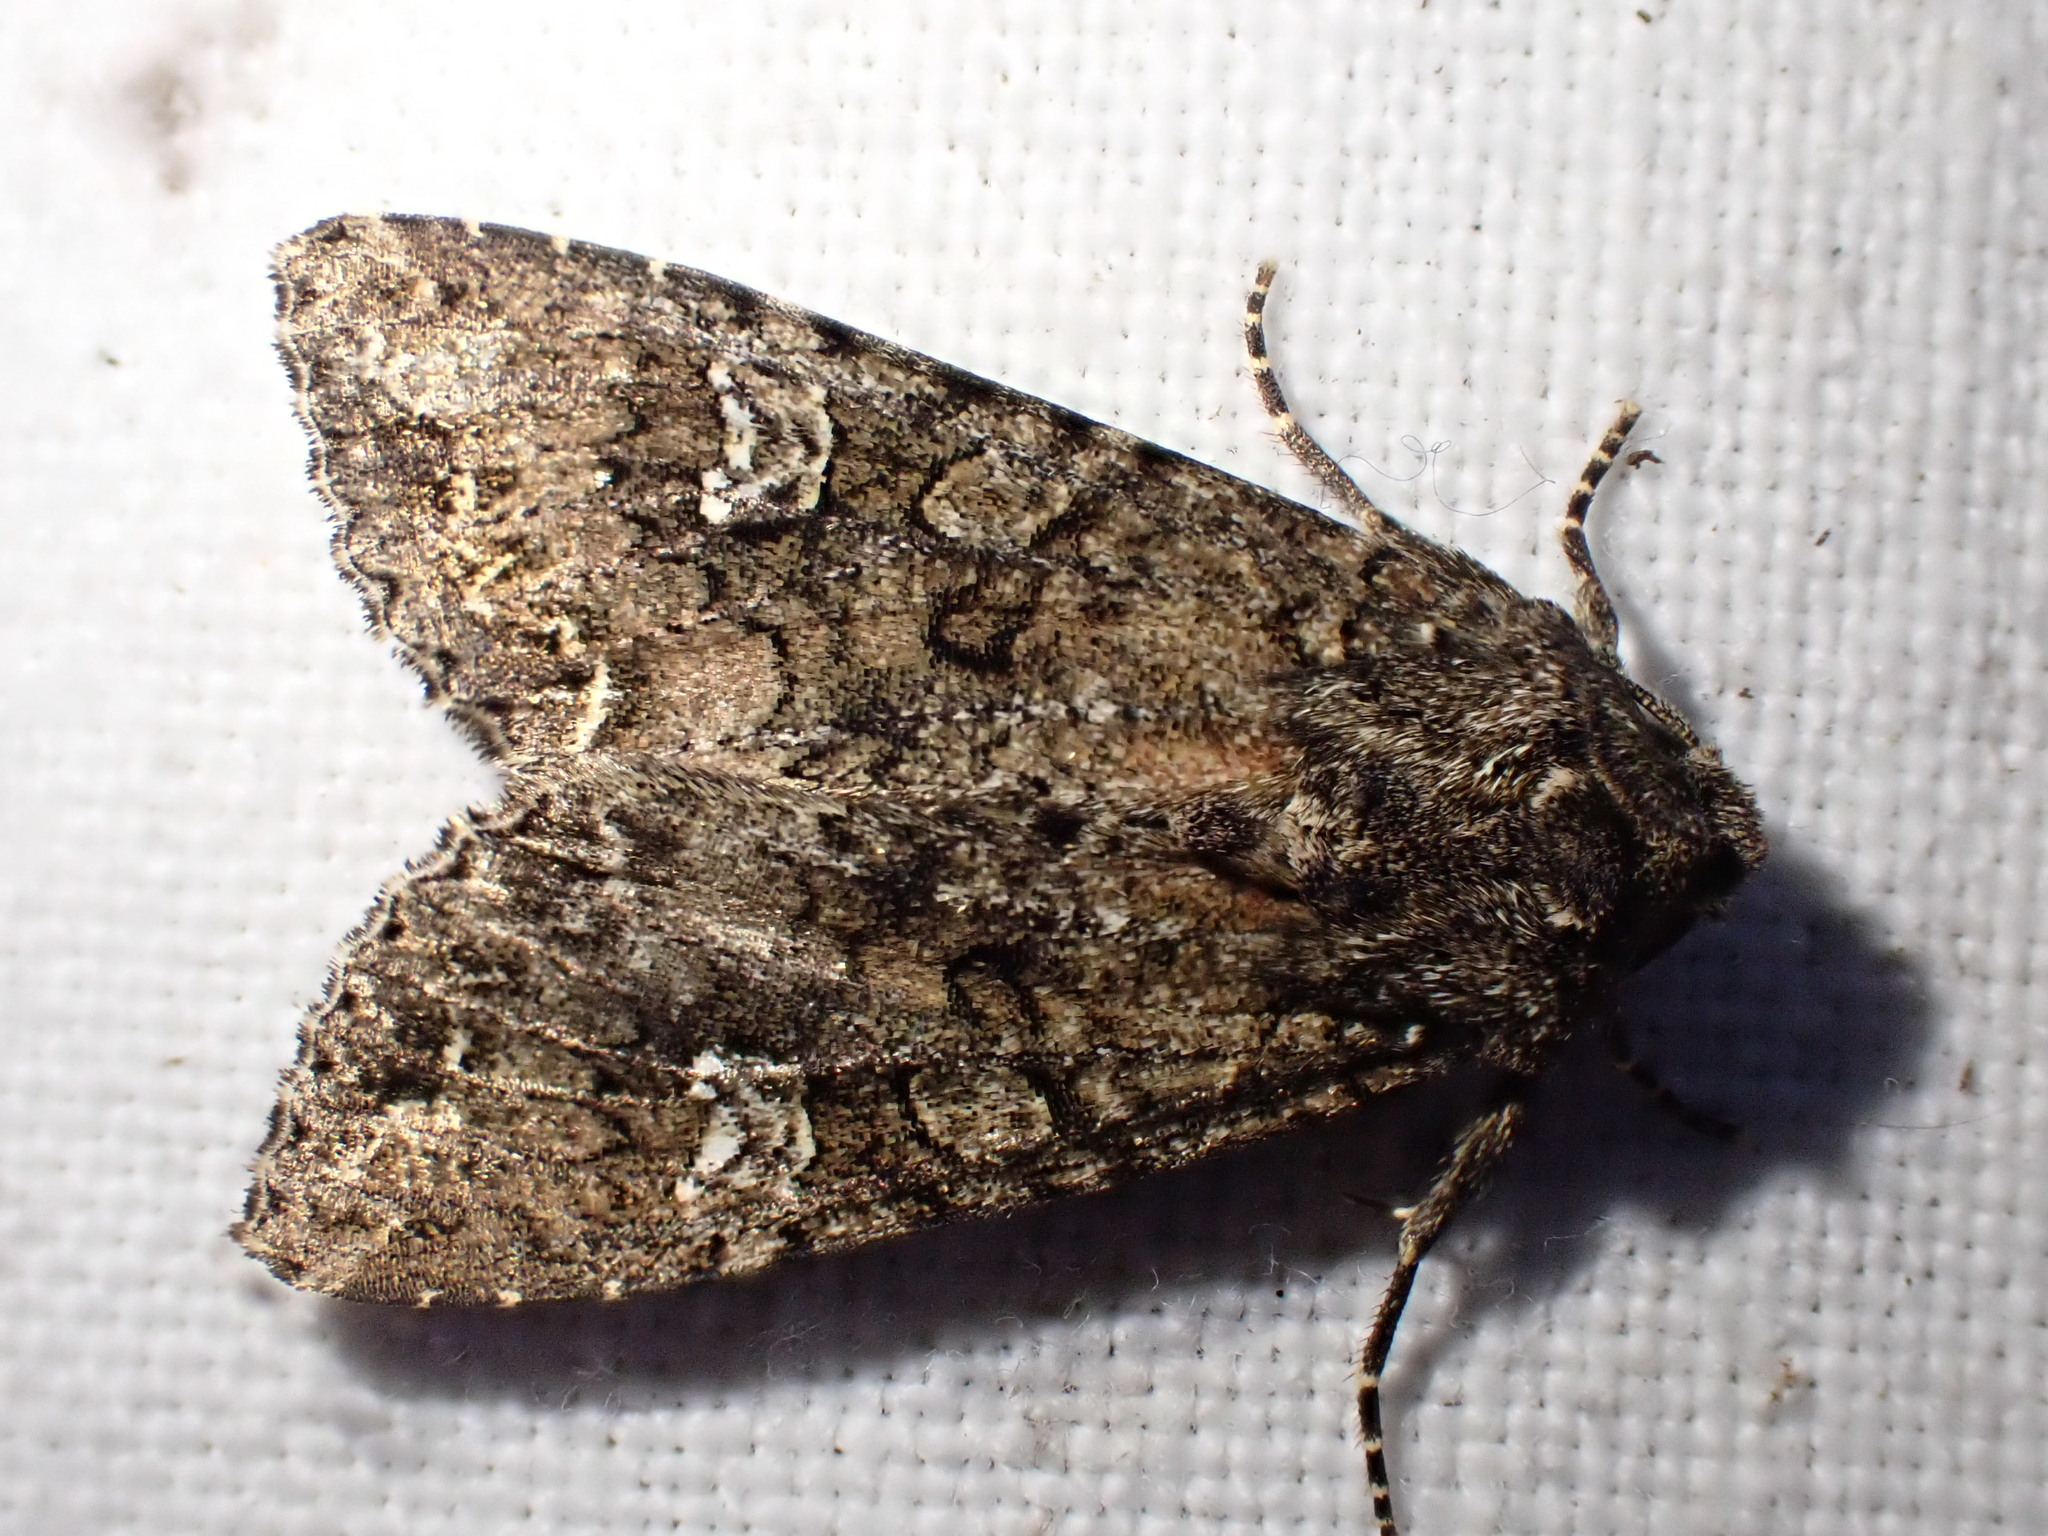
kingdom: Animalia
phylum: Arthropoda
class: Insecta
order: Lepidoptera
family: Noctuidae
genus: Mamestra
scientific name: Mamestra brassicae
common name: Cabbage moth
